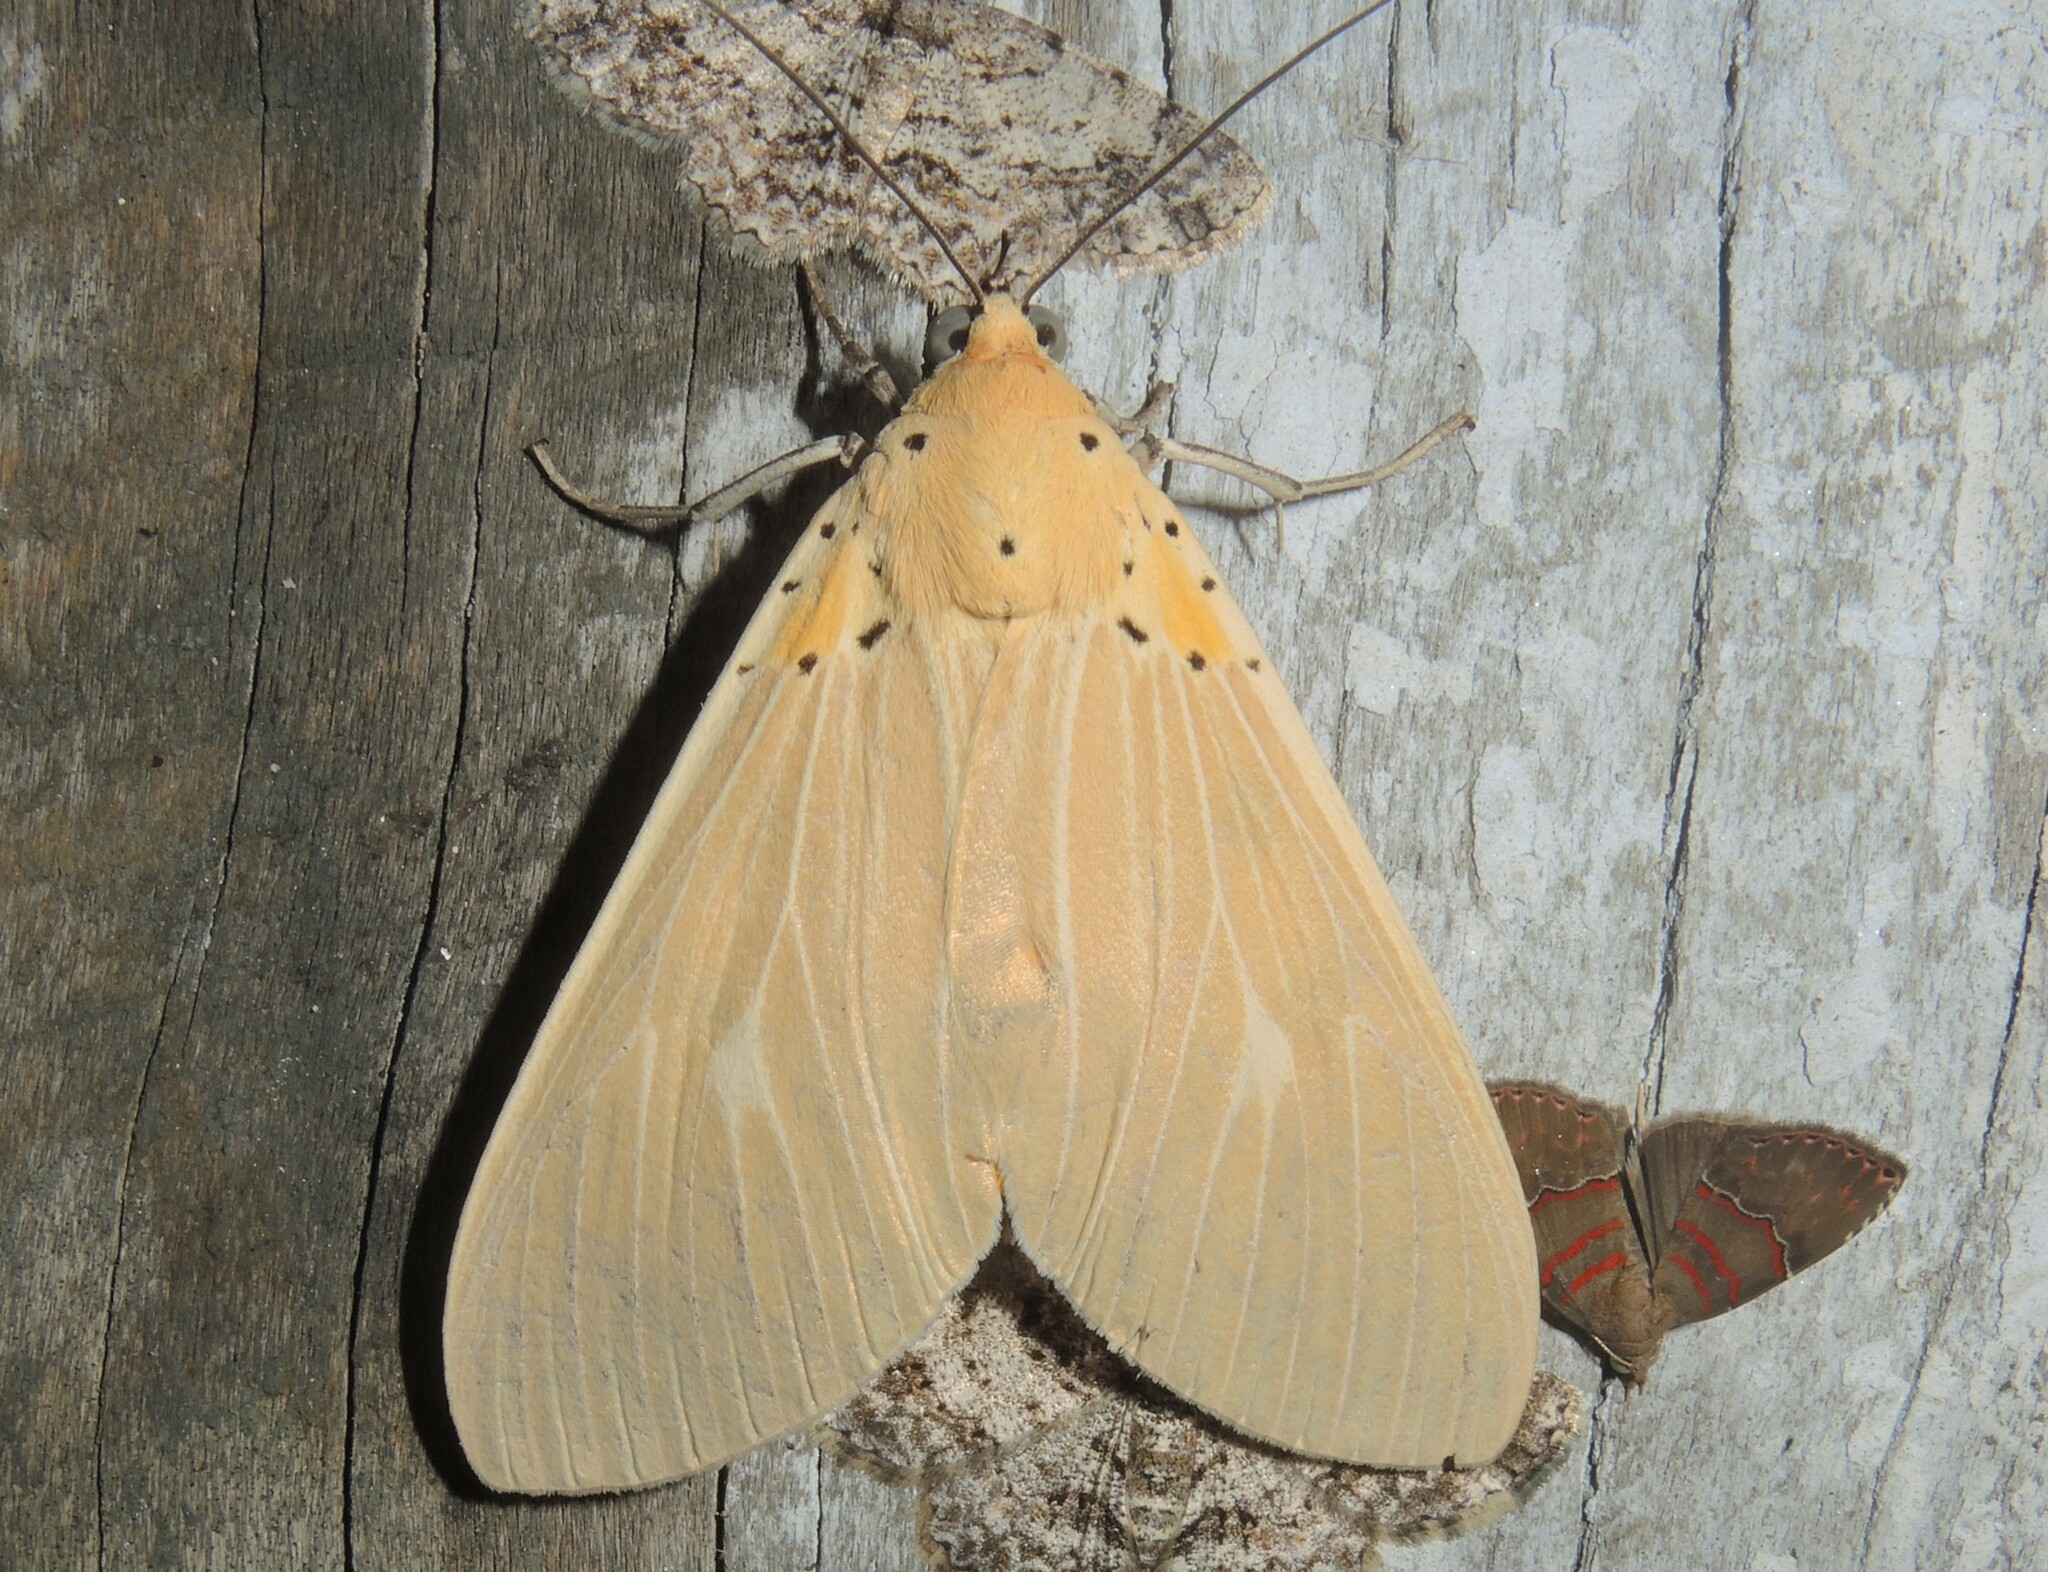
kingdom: Animalia
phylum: Arthropoda
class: Insecta
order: Lepidoptera
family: Erebidae
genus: Asota
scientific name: Asota producta
